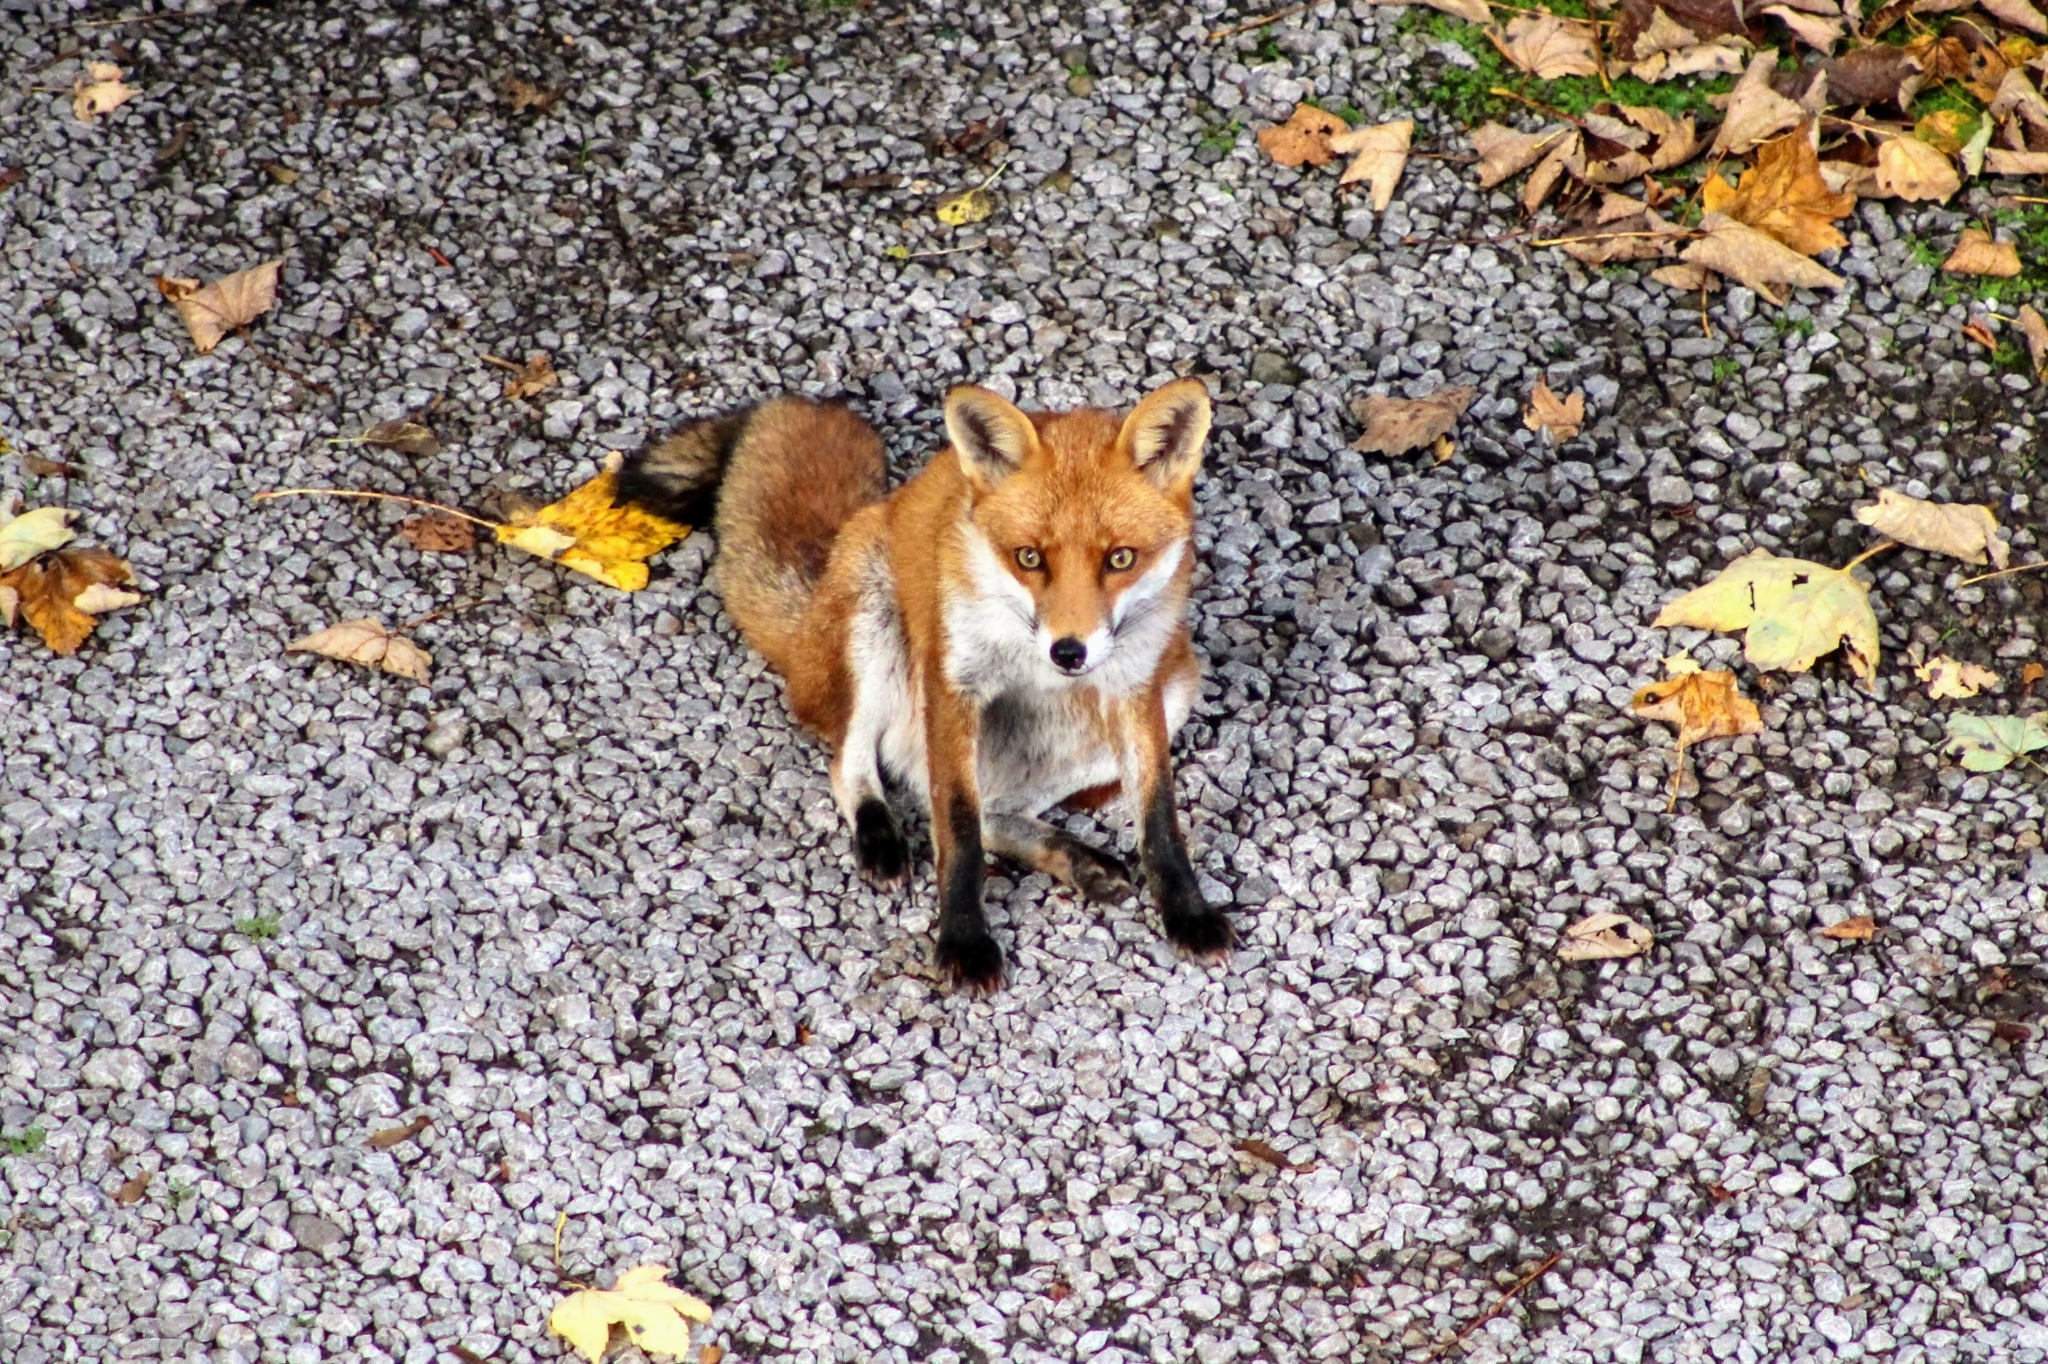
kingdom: Animalia
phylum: Chordata
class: Mammalia
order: Carnivora
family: Canidae
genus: Vulpes
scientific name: Vulpes vulpes
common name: Red fox
